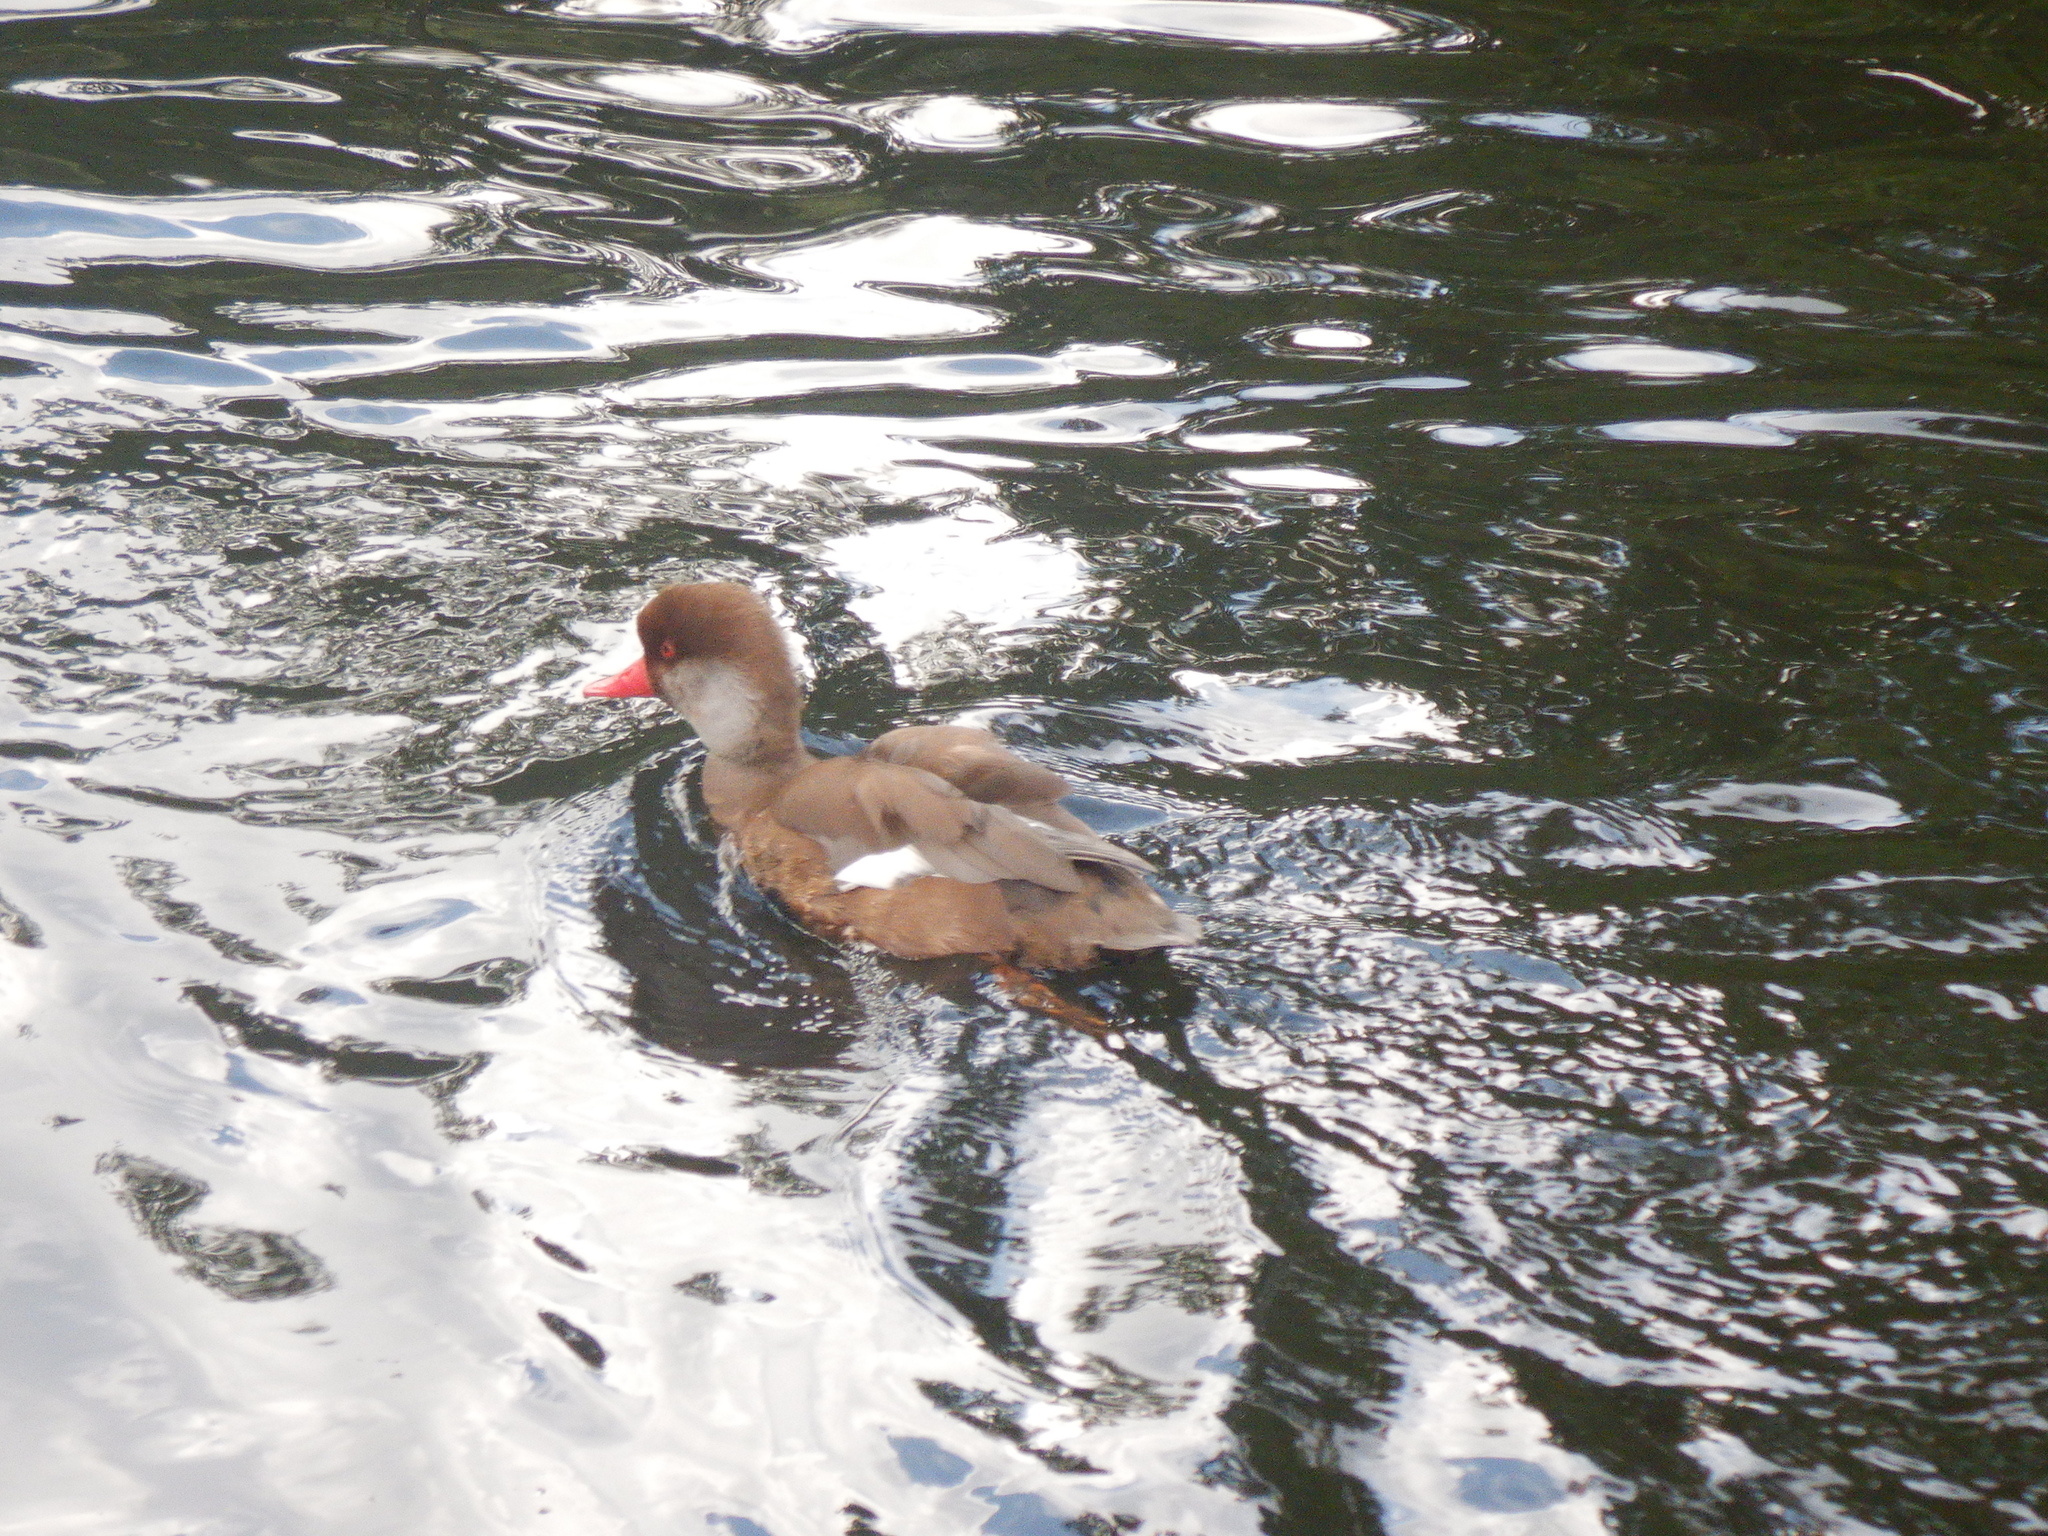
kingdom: Animalia
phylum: Chordata
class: Aves
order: Anseriformes
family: Anatidae
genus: Netta
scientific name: Netta rufina
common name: Red-crested pochard
